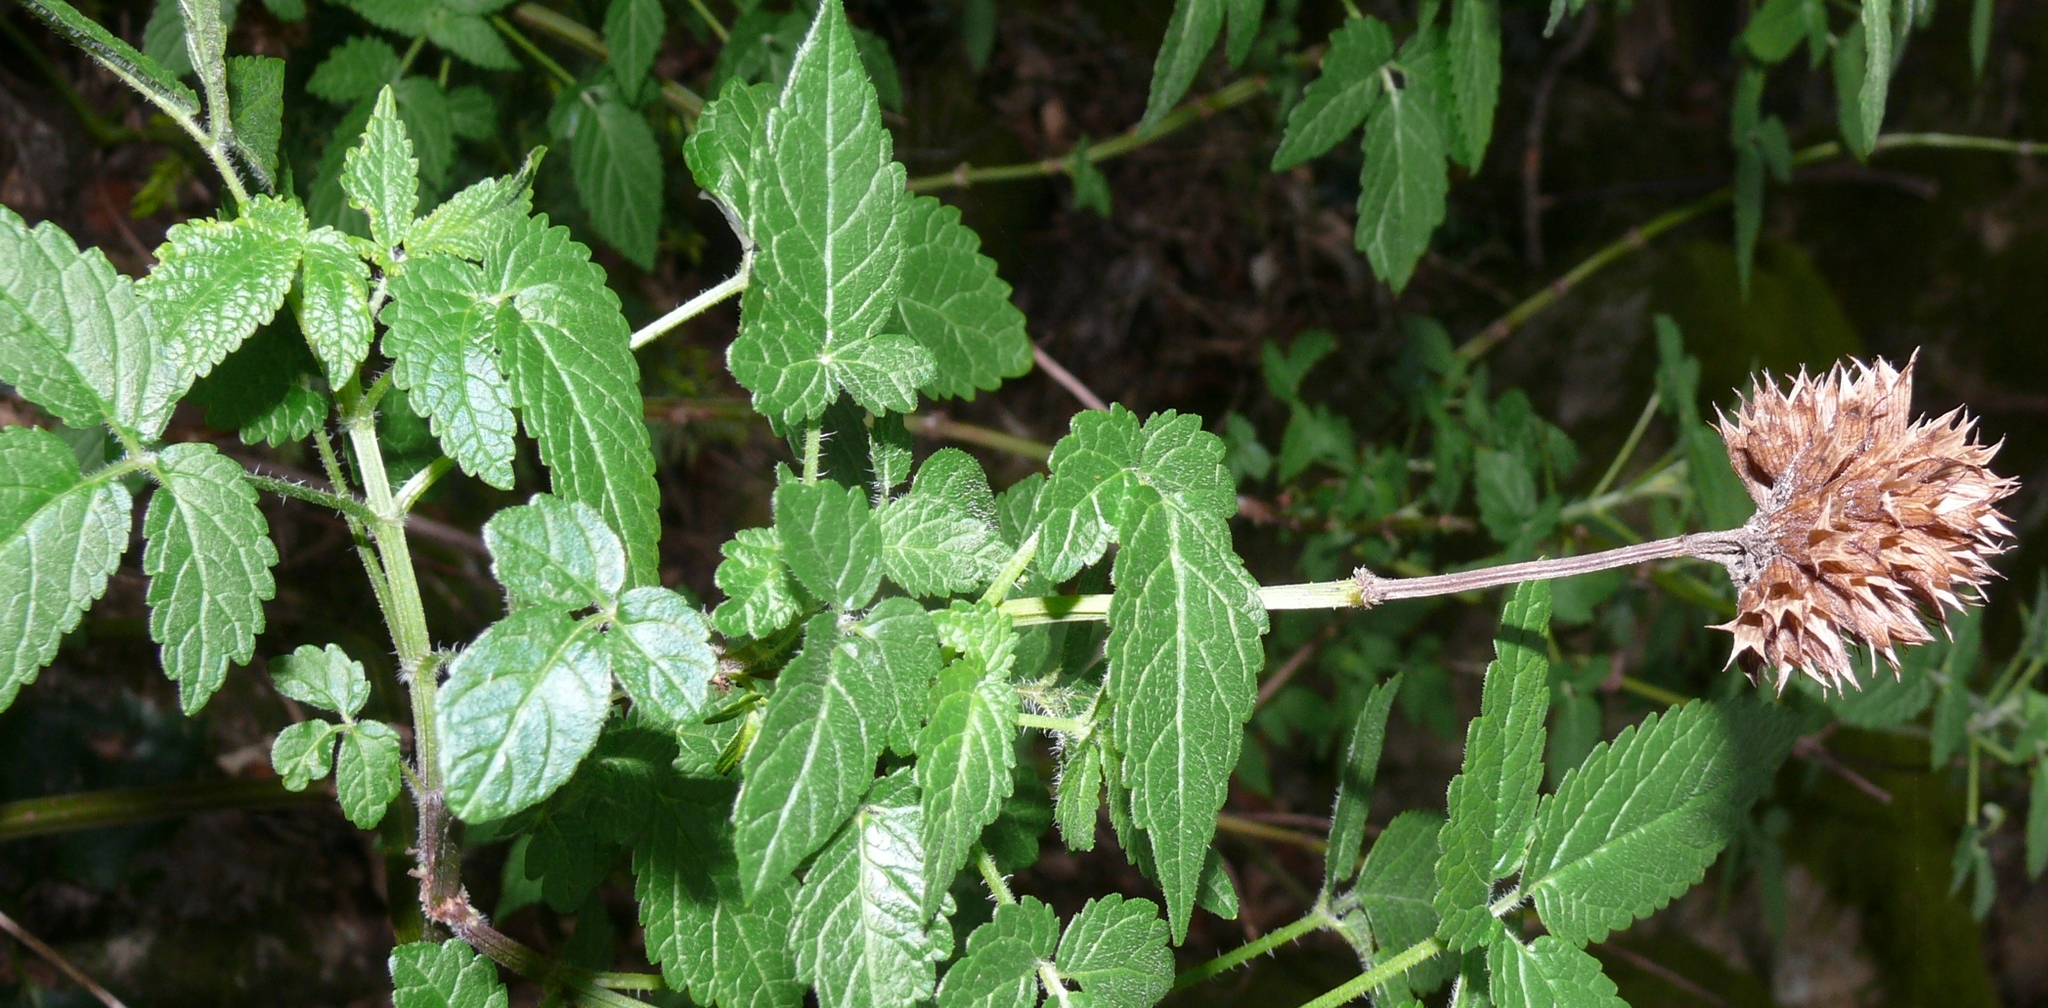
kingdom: Plantae
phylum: Tracheophyta
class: Magnoliopsida
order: Lamiales
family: Lamiaceae
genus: Cedronella
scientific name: Cedronella canariensis
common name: Canary islands balm
